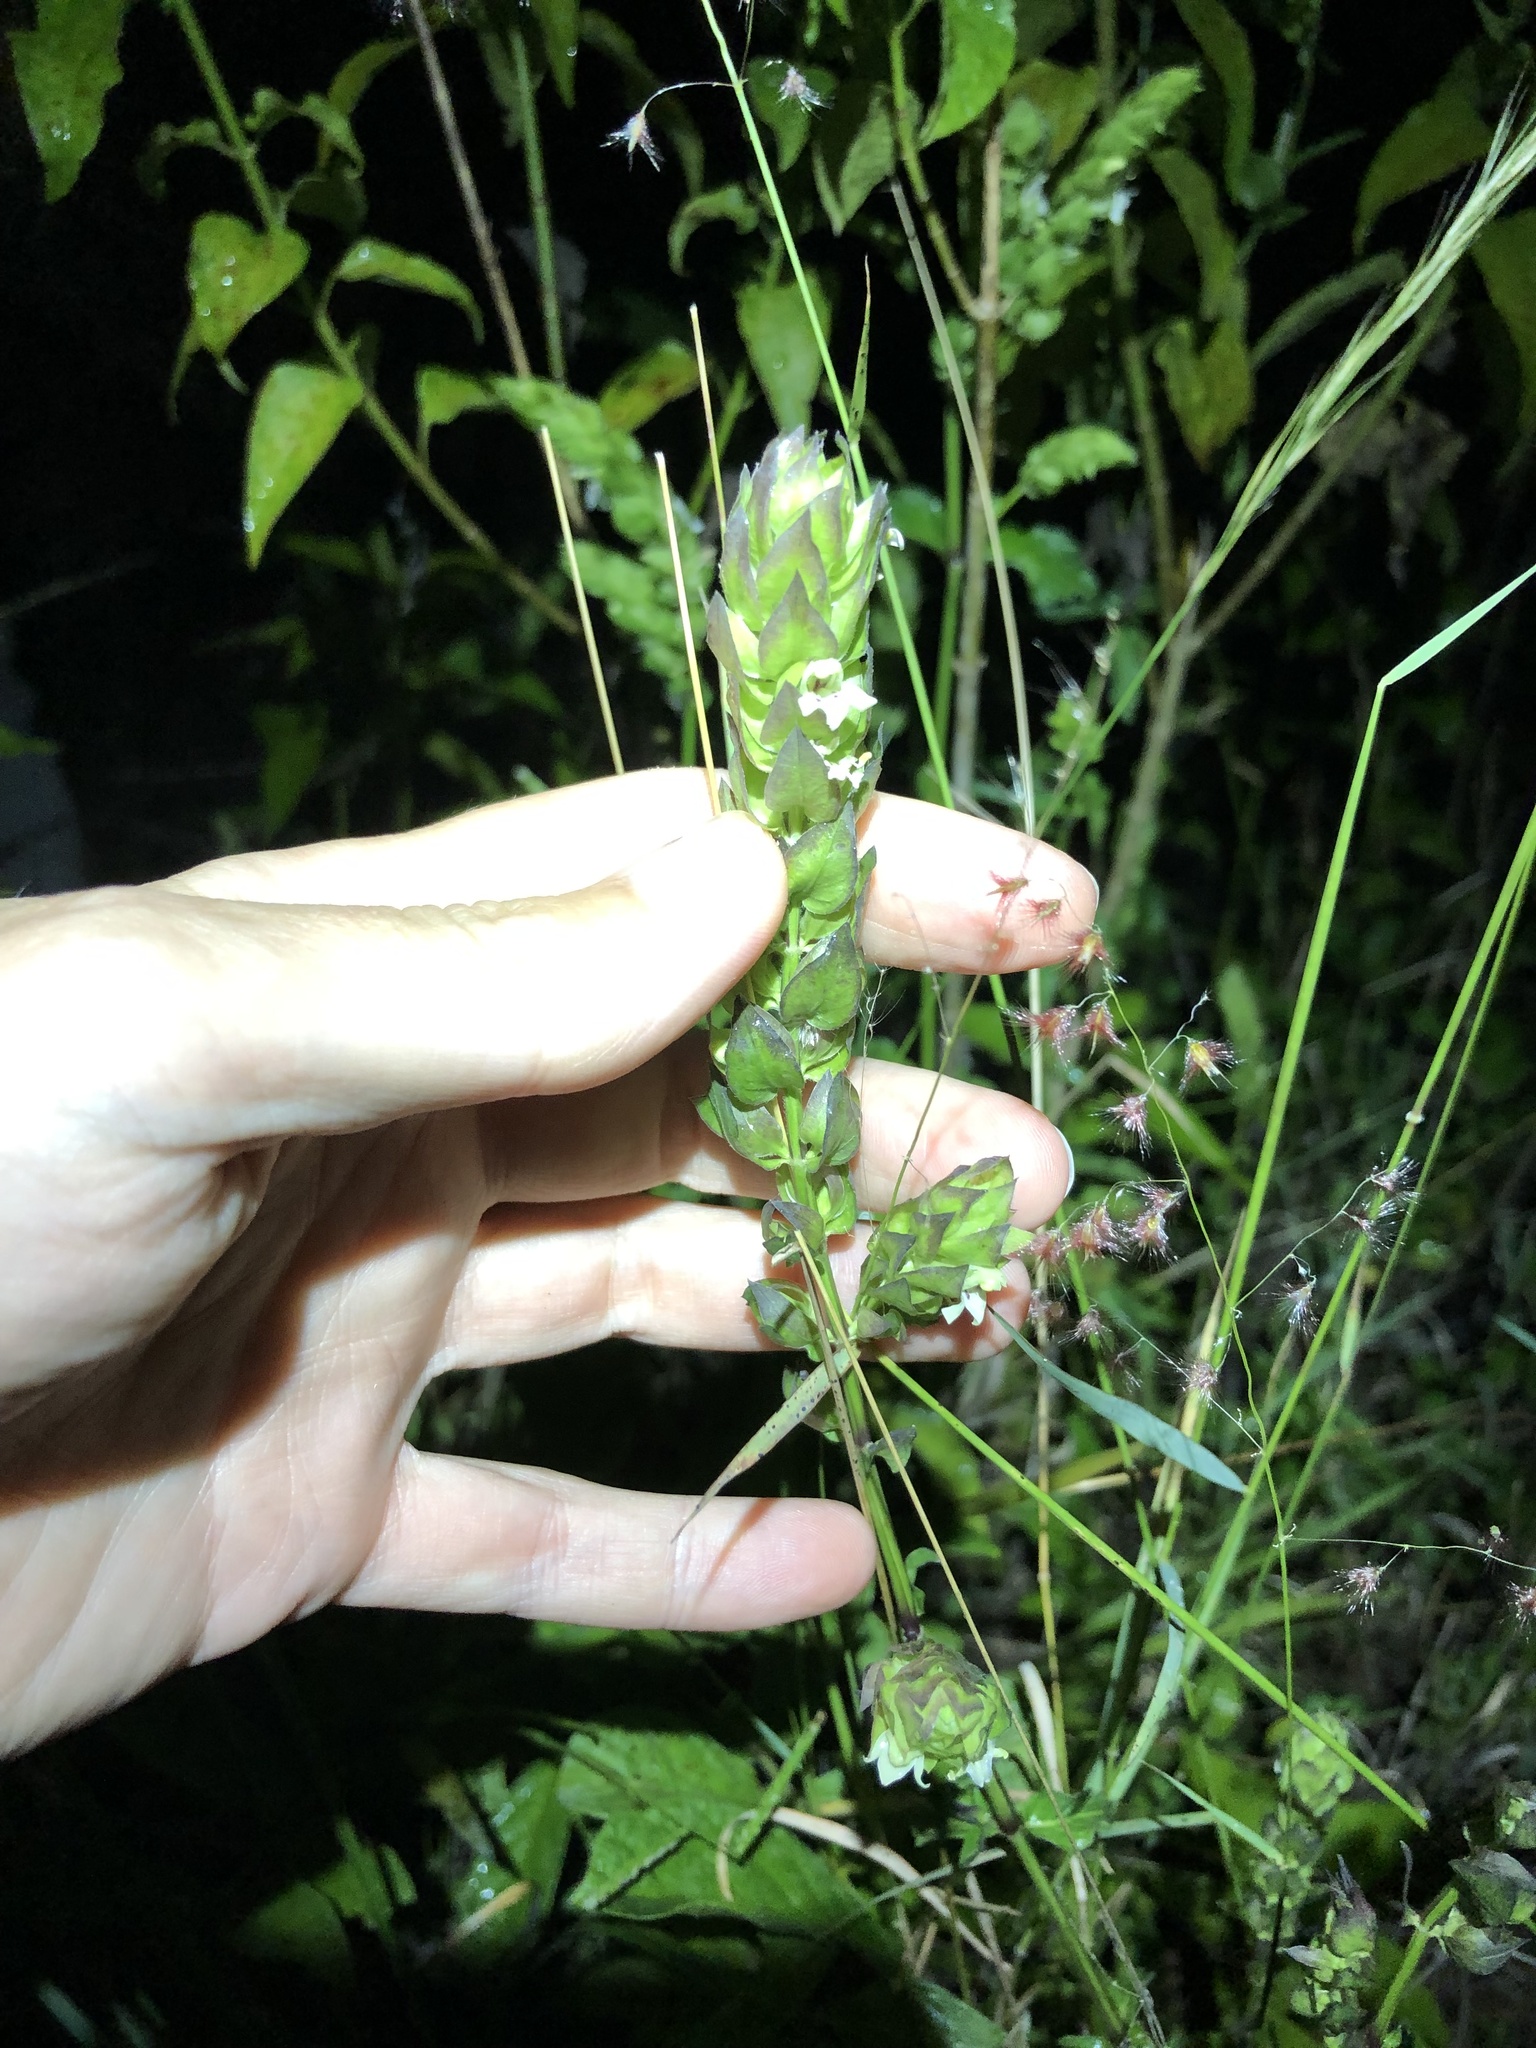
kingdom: Plantae
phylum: Tracheophyta
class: Magnoliopsida
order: Lamiales
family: Acanthaceae
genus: Justicia
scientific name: Justicia betonica
